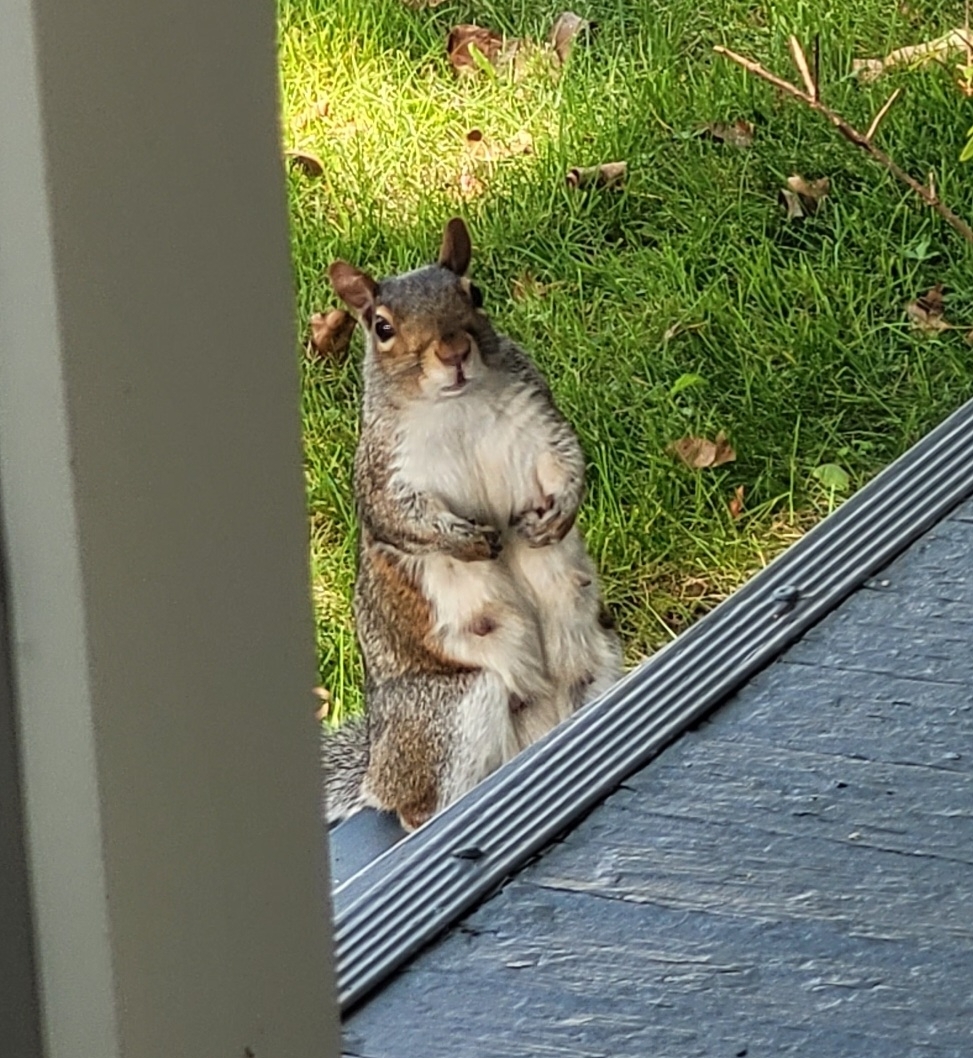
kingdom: Animalia
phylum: Chordata
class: Mammalia
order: Rodentia
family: Sciuridae
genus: Sciurus
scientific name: Sciurus carolinensis
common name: Eastern gray squirrel
